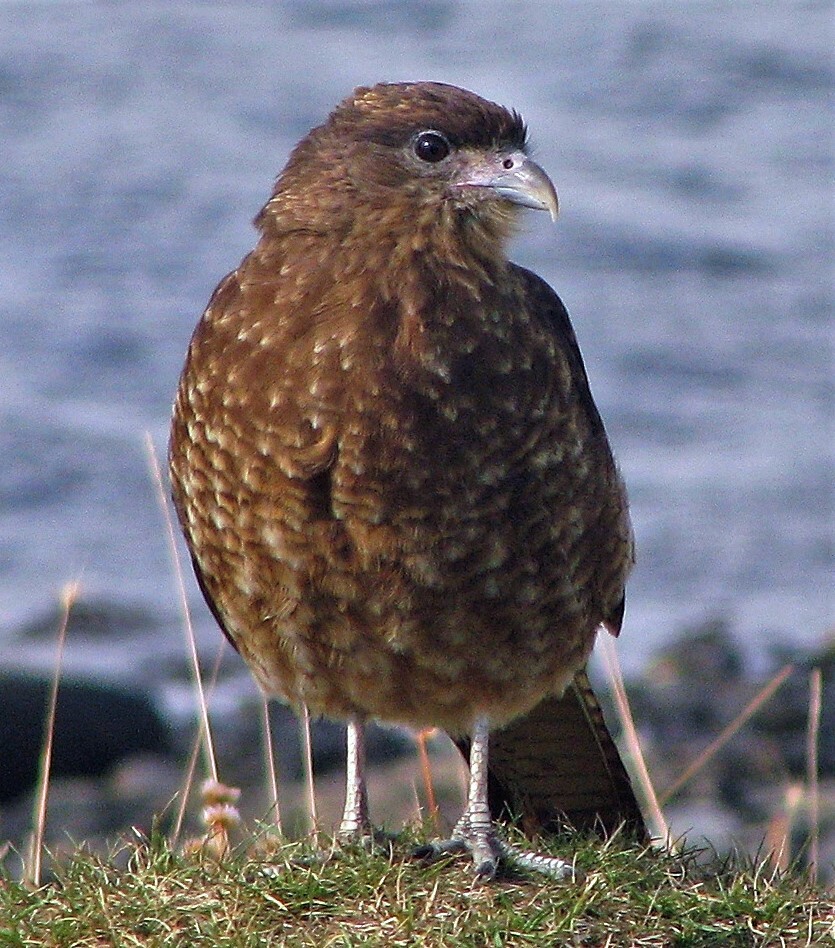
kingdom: Animalia
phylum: Chordata
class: Aves
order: Falconiformes
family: Falconidae
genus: Daptrius
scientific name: Daptrius
